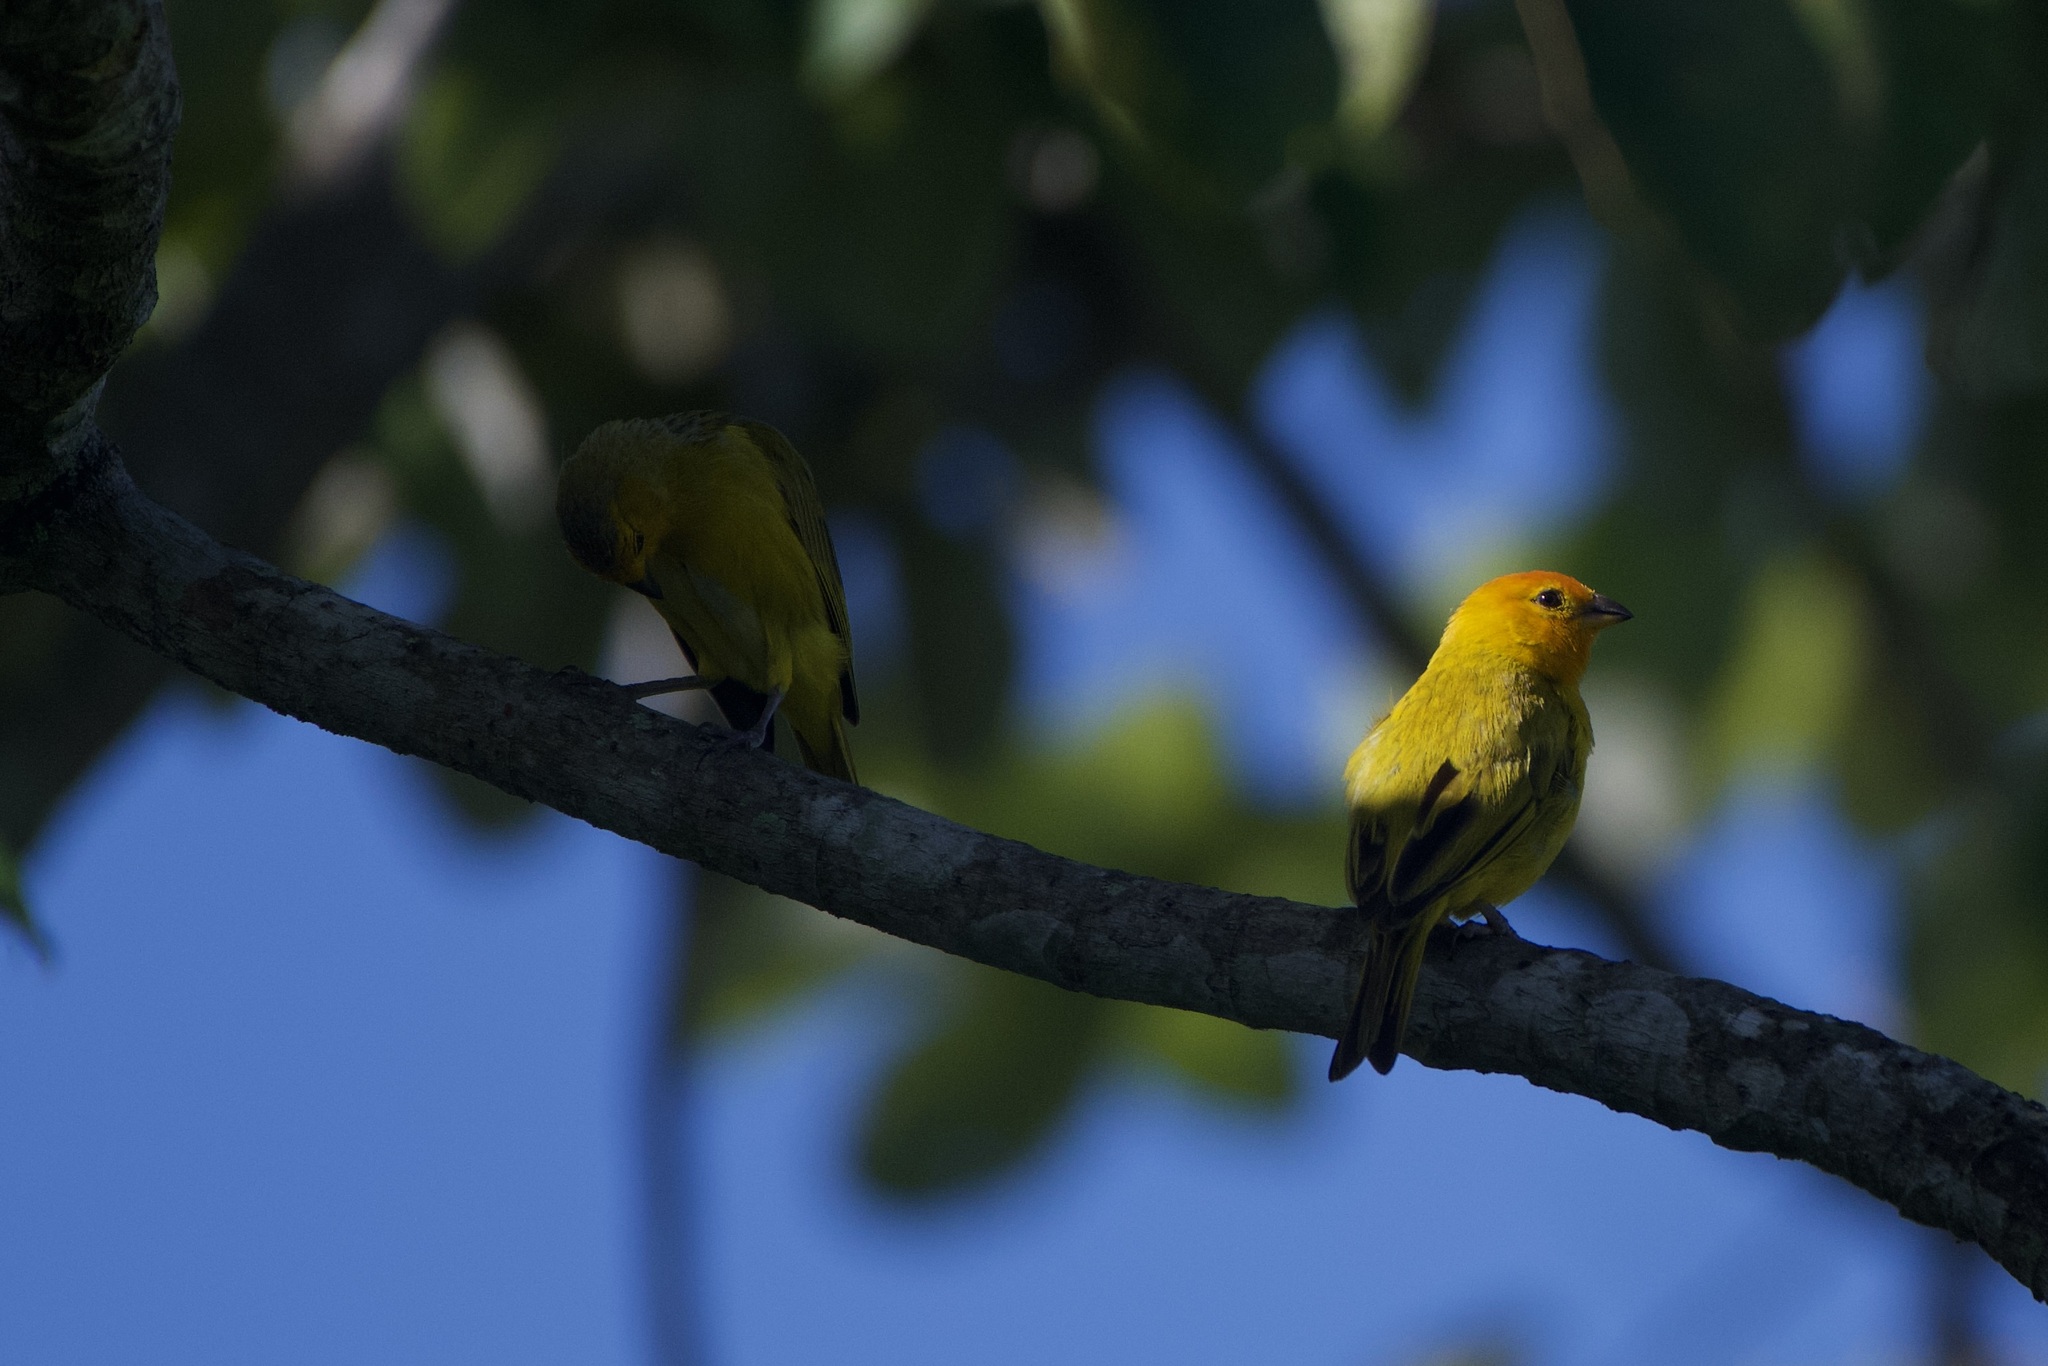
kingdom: Animalia
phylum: Chordata
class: Aves
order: Passeriformes
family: Thraupidae
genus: Sicalis
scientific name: Sicalis flaveola
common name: Saffron finch
